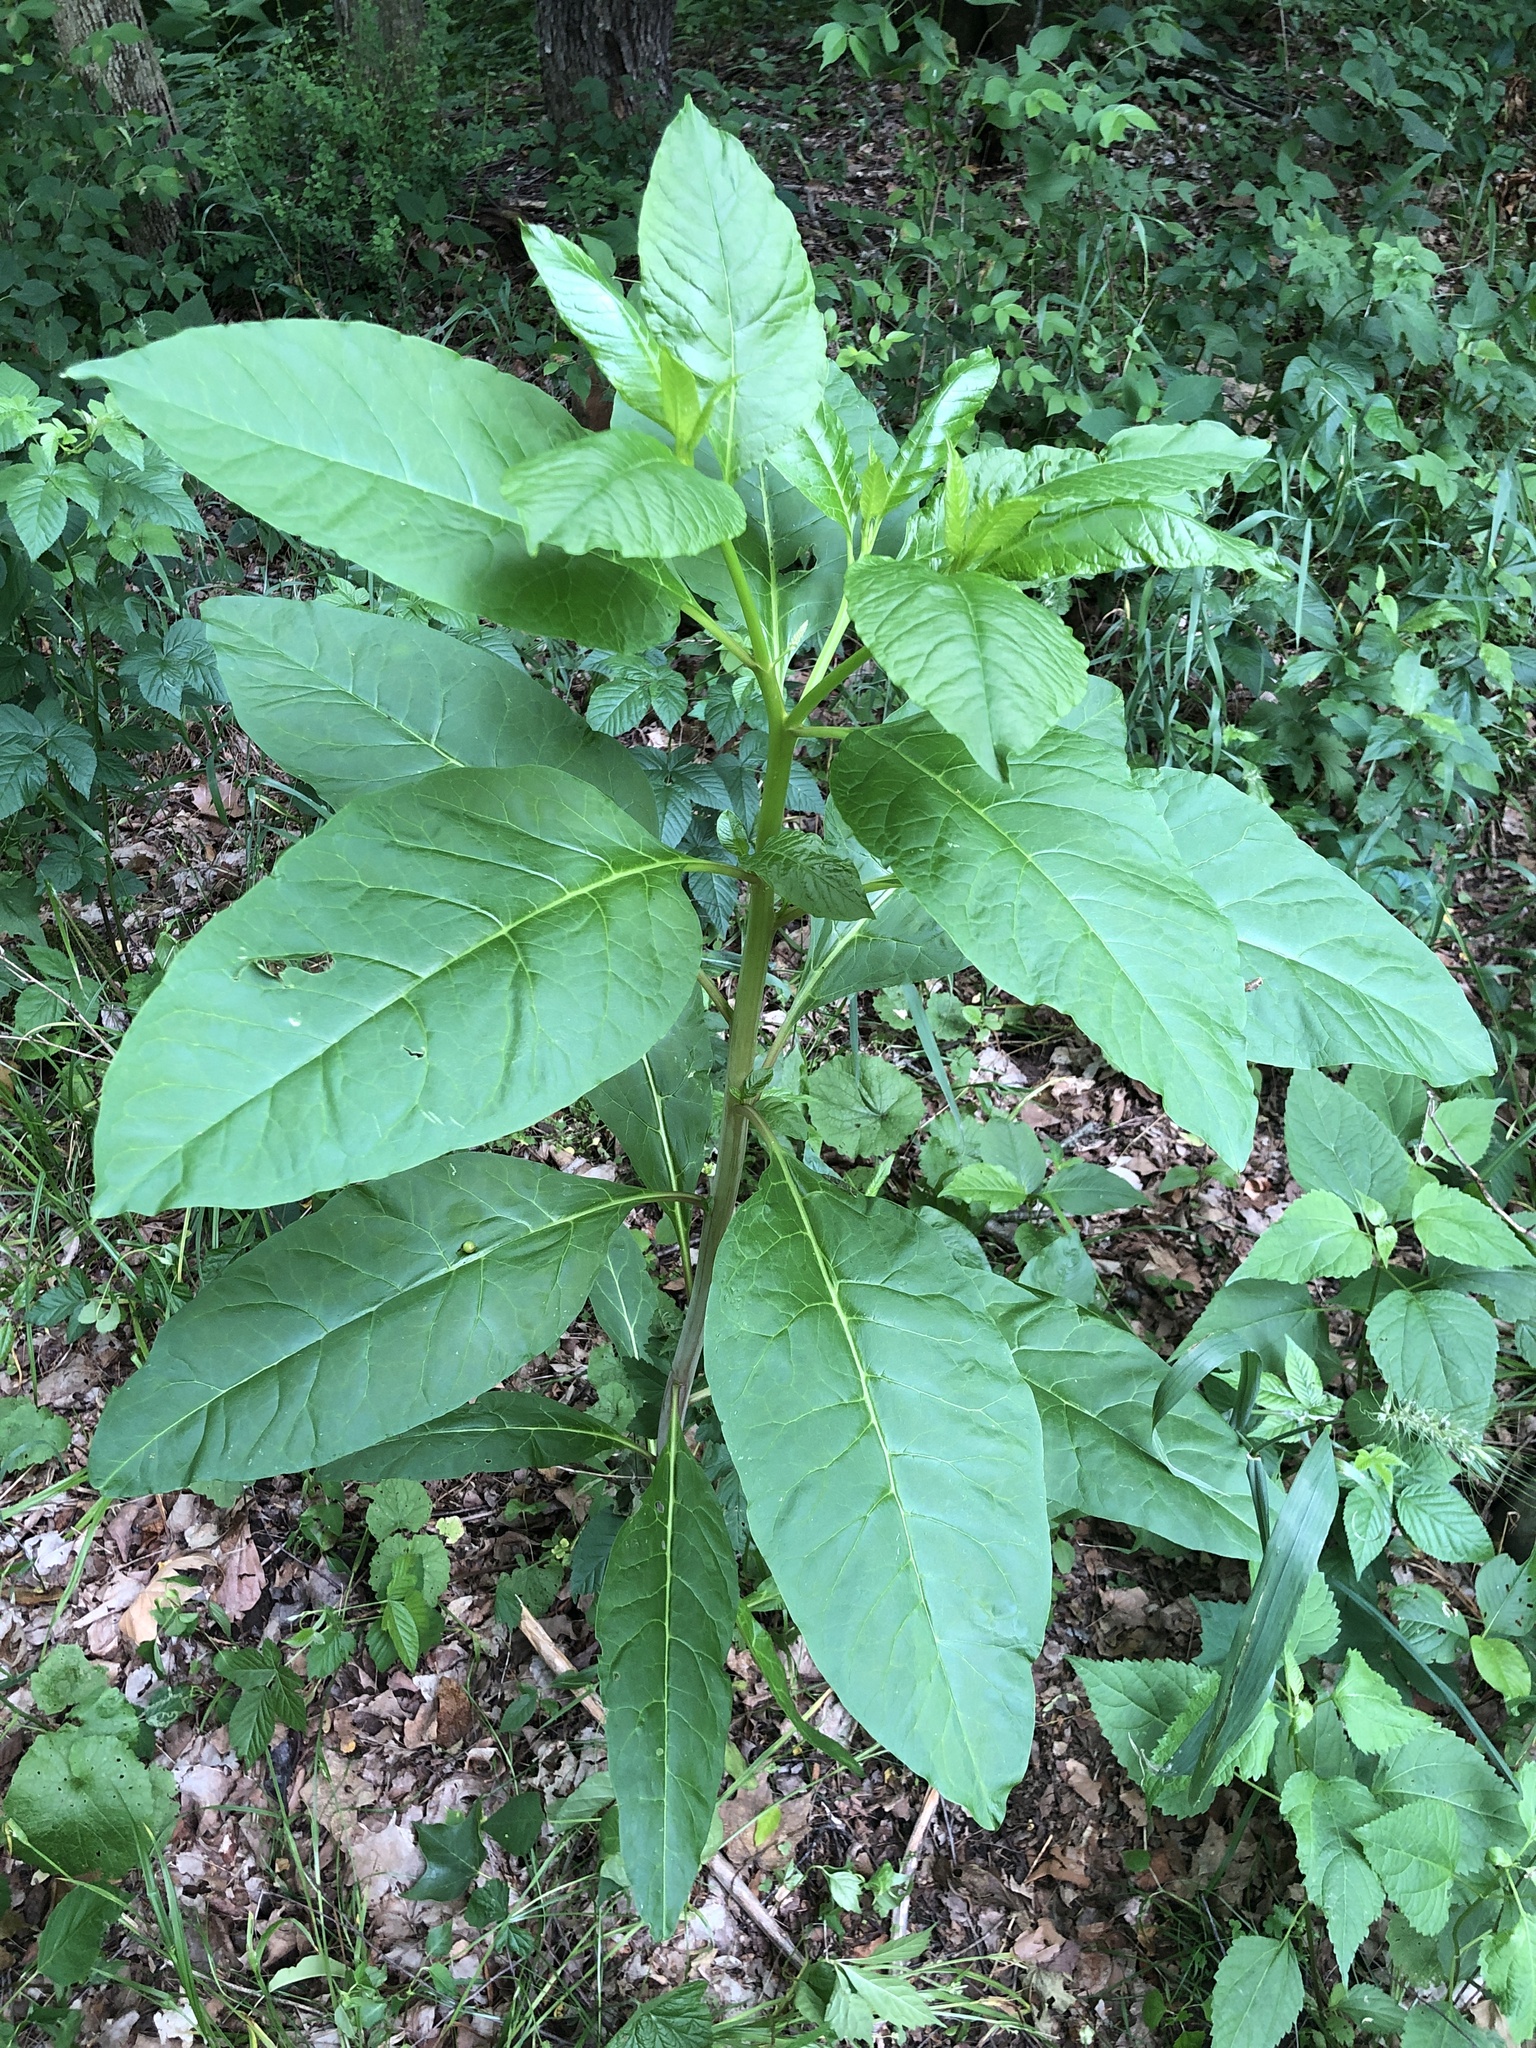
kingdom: Plantae
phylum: Tracheophyta
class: Magnoliopsida
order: Caryophyllales
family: Phytolaccaceae
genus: Phytolacca
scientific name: Phytolacca americana
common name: American pokeweed
